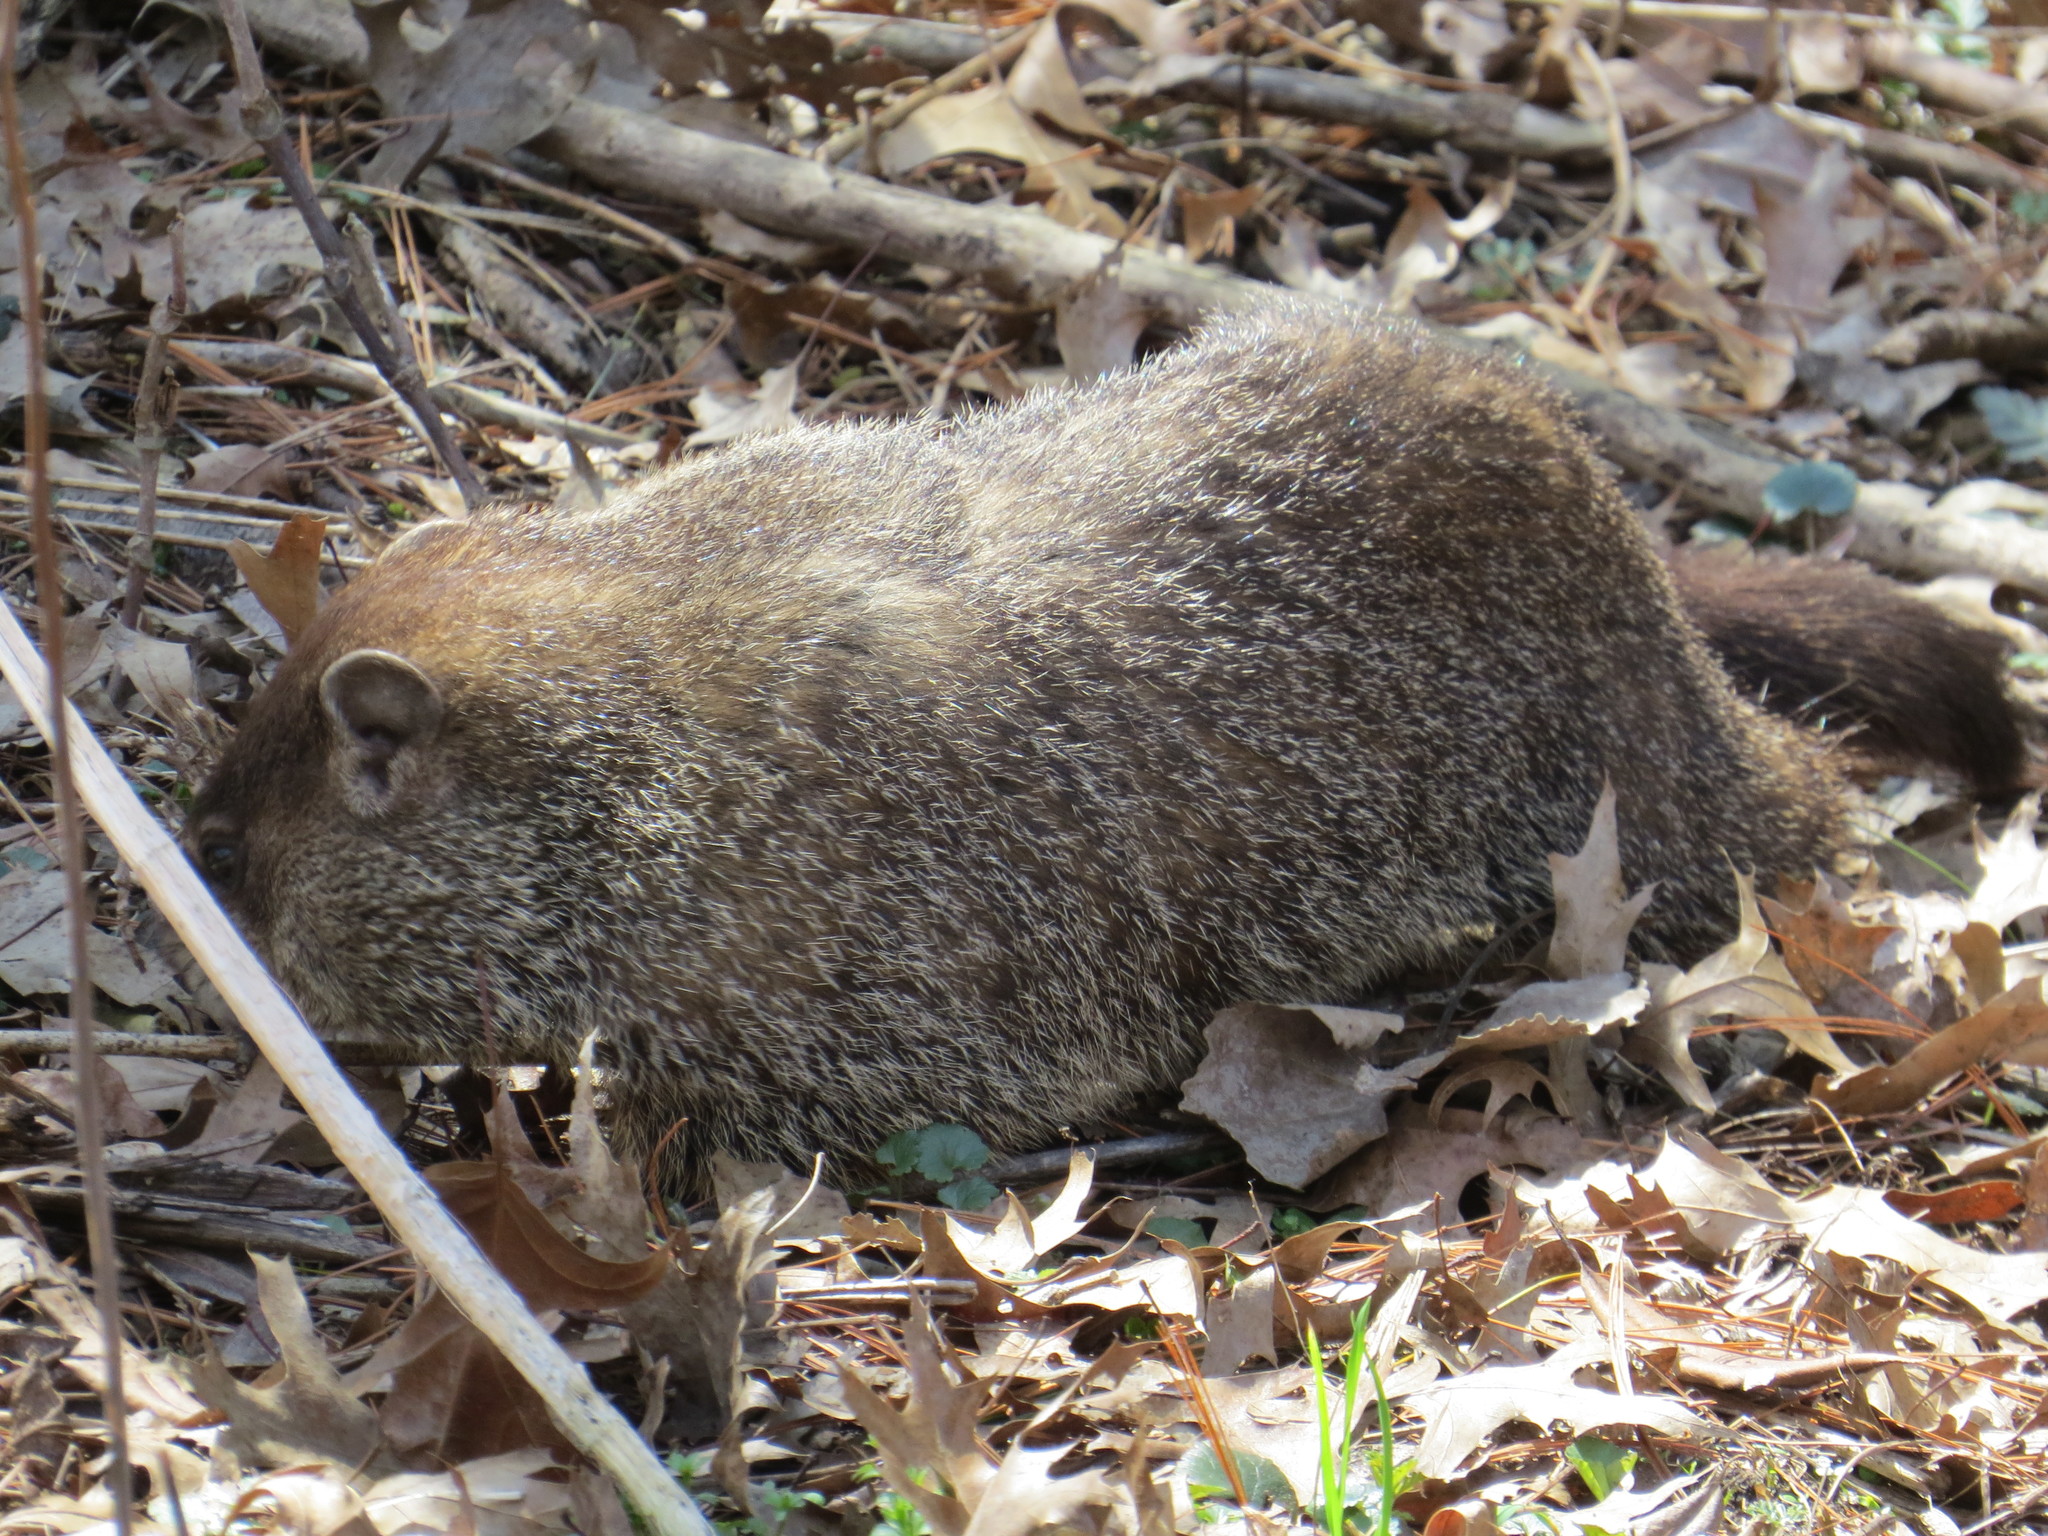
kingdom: Animalia
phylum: Chordata
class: Mammalia
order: Rodentia
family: Sciuridae
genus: Marmota
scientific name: Marmota monax
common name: Groundhog
